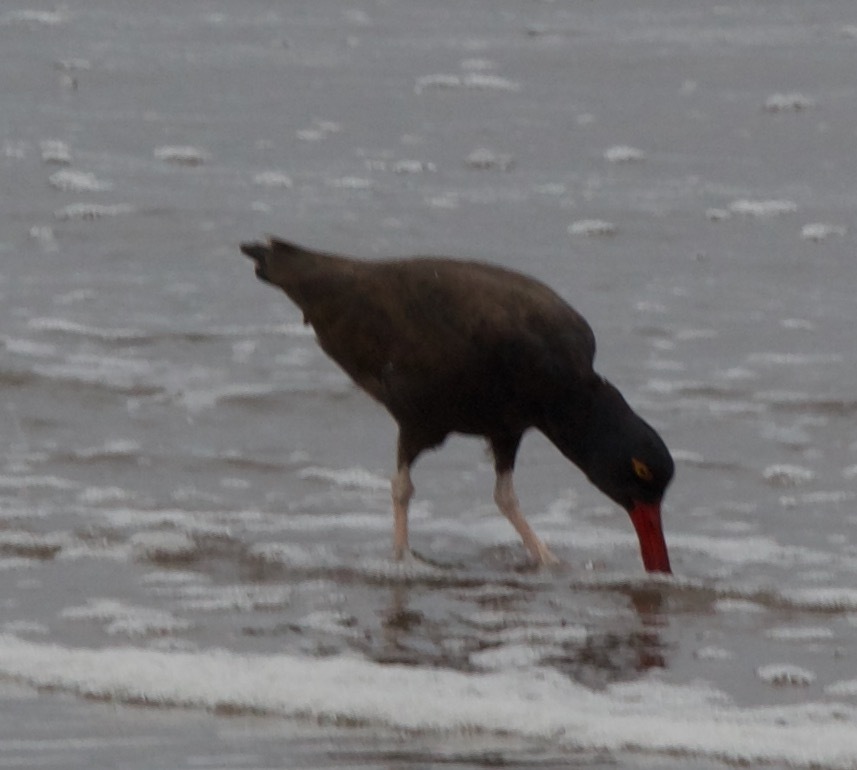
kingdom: Animalia
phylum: Chordata
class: Aves
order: Charadriiformes
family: Haematopodidae
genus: Haematopus
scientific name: Haematopus ater
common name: Blackish oystercatcher
